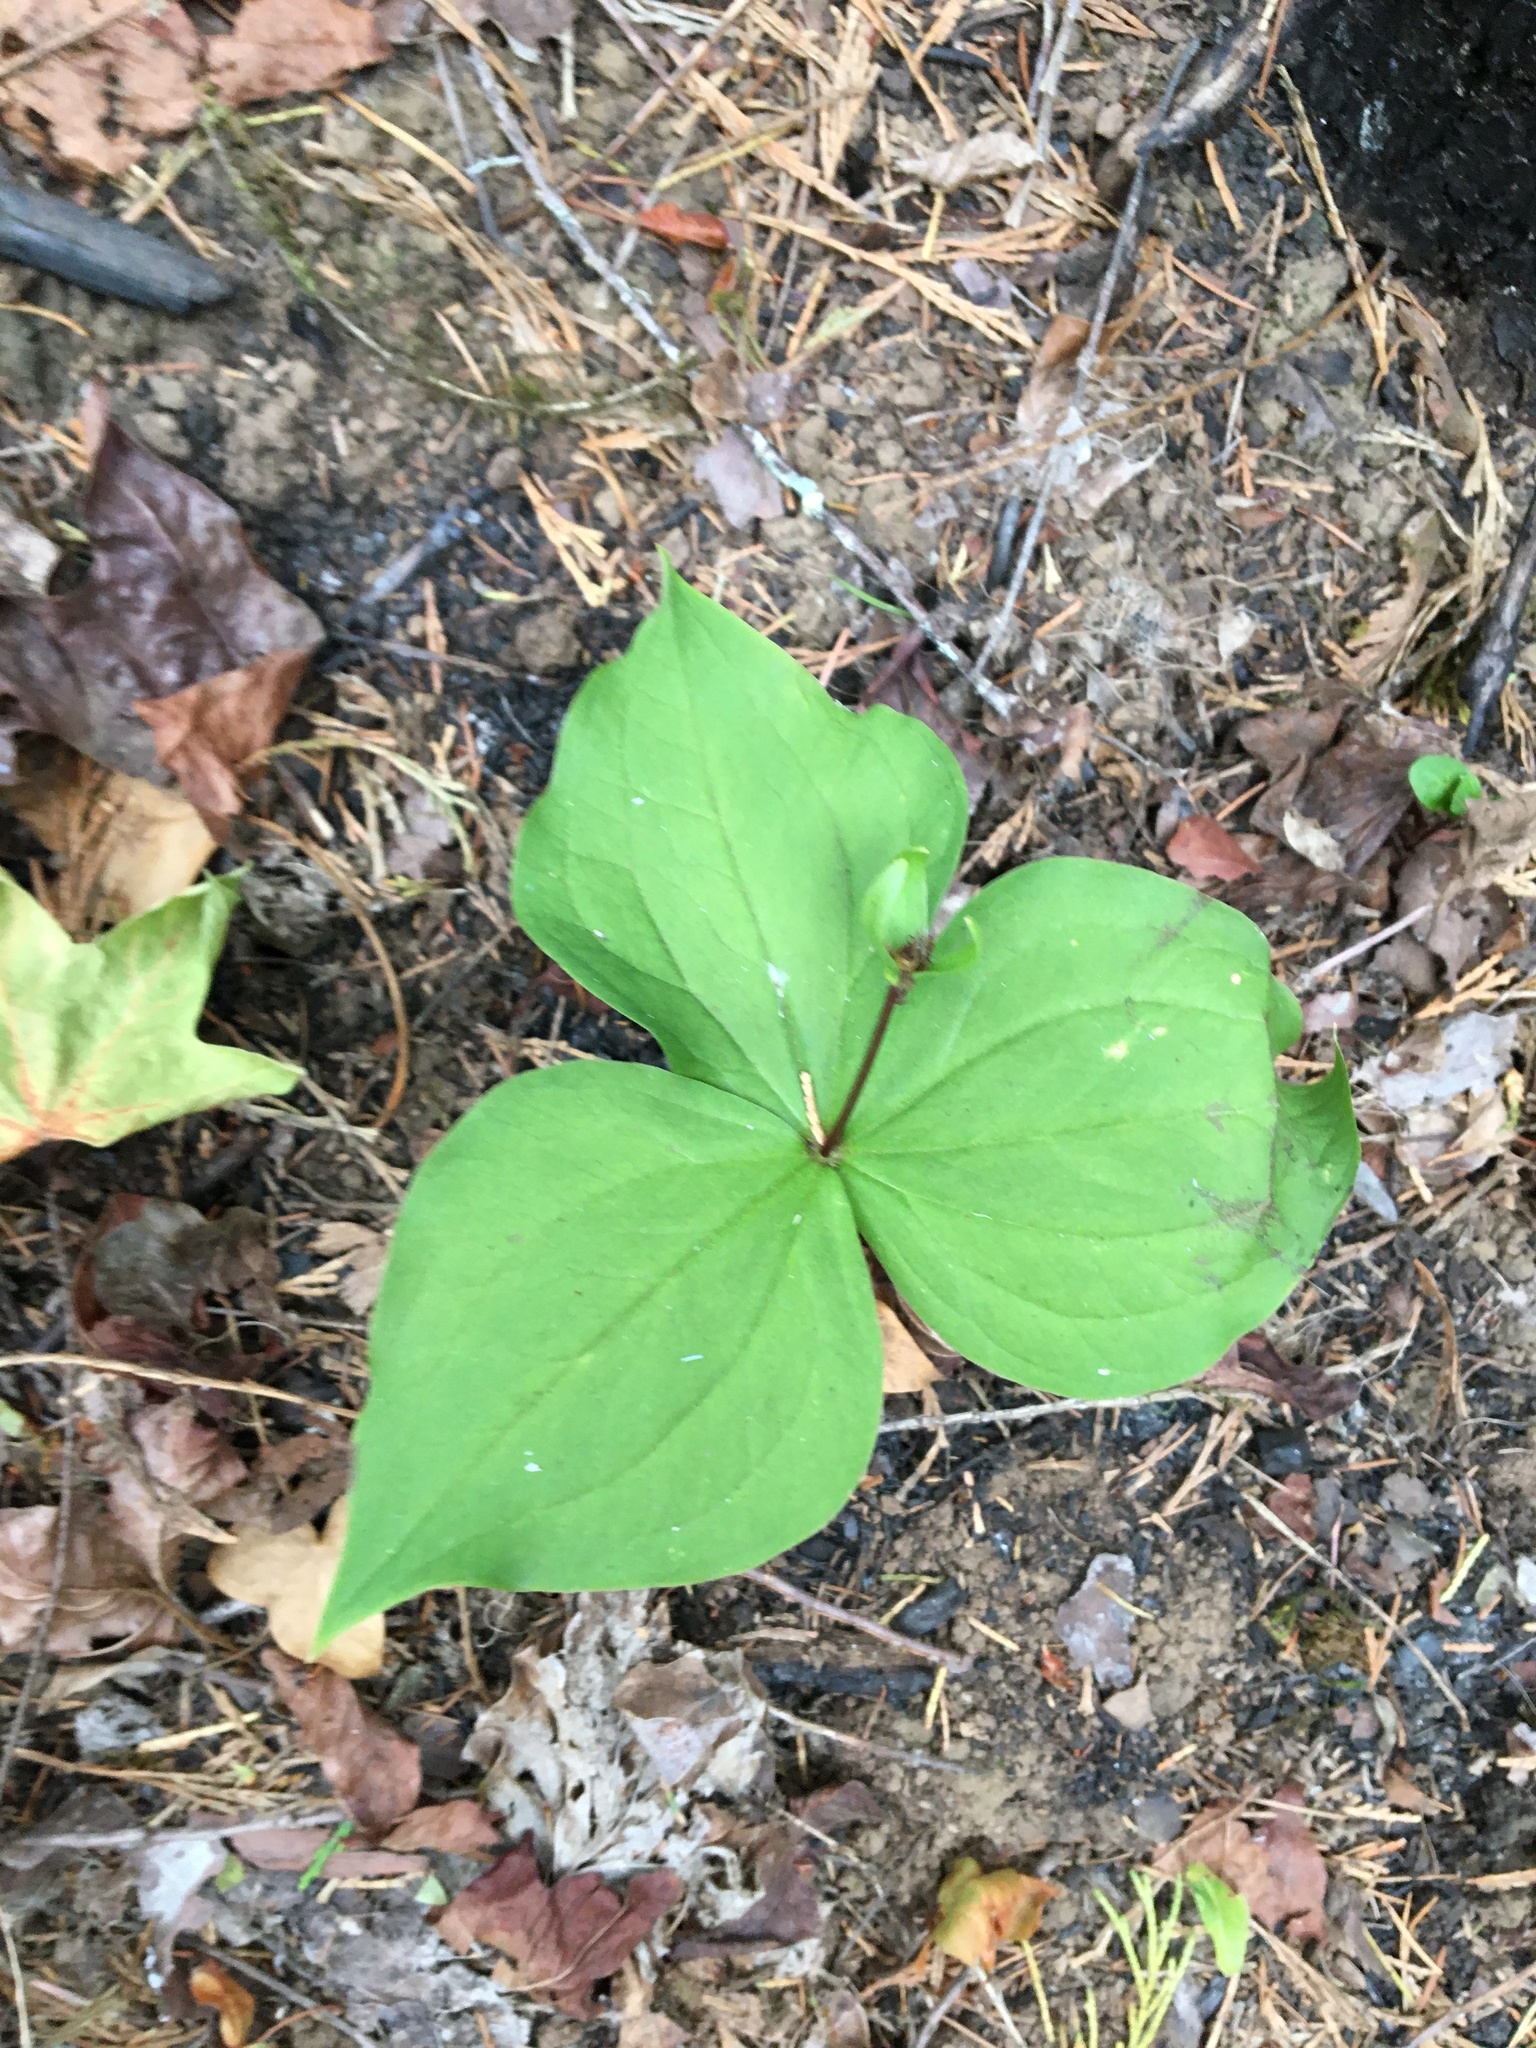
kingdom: Plantae
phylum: Tracheophyta
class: Liliopsida
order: Liliales
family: Melanthiaceae
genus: Trillium
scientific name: Trillium ovatum
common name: Pacific trillium
